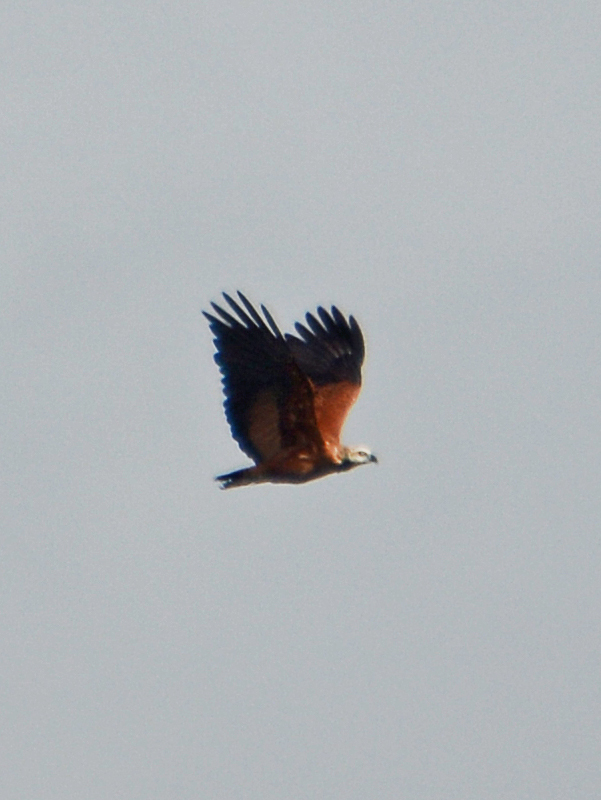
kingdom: Animalia
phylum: Chordata
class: Aves
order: Accipitriformes
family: Accipitridae
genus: Busarellus
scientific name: Busarellus nigricollis
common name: Black-collared hawk
